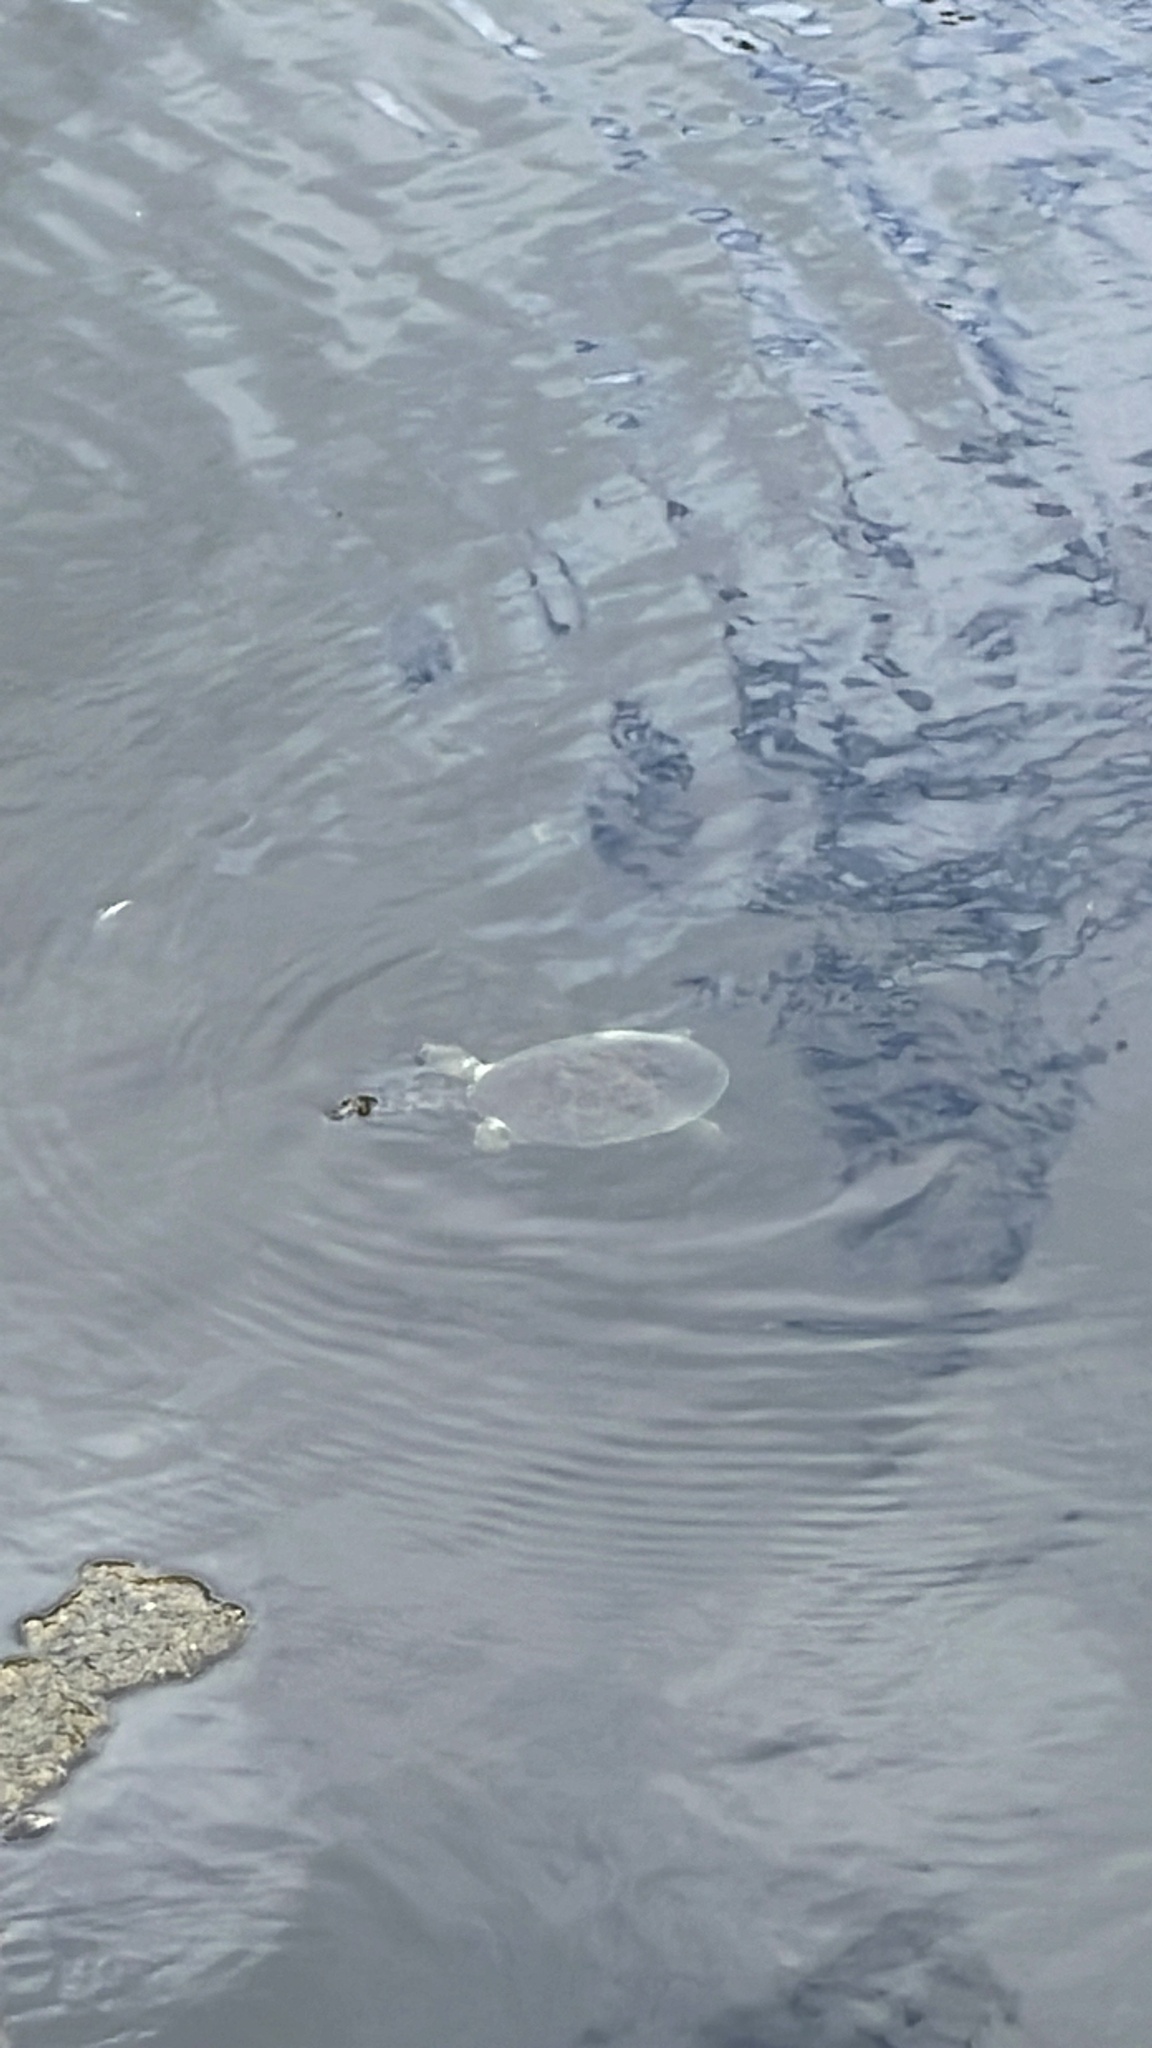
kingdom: Animalia
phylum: Chordata
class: Testudines
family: Trionychidae
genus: Apalone
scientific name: Apalone ferox
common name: Florida softshell turtle
